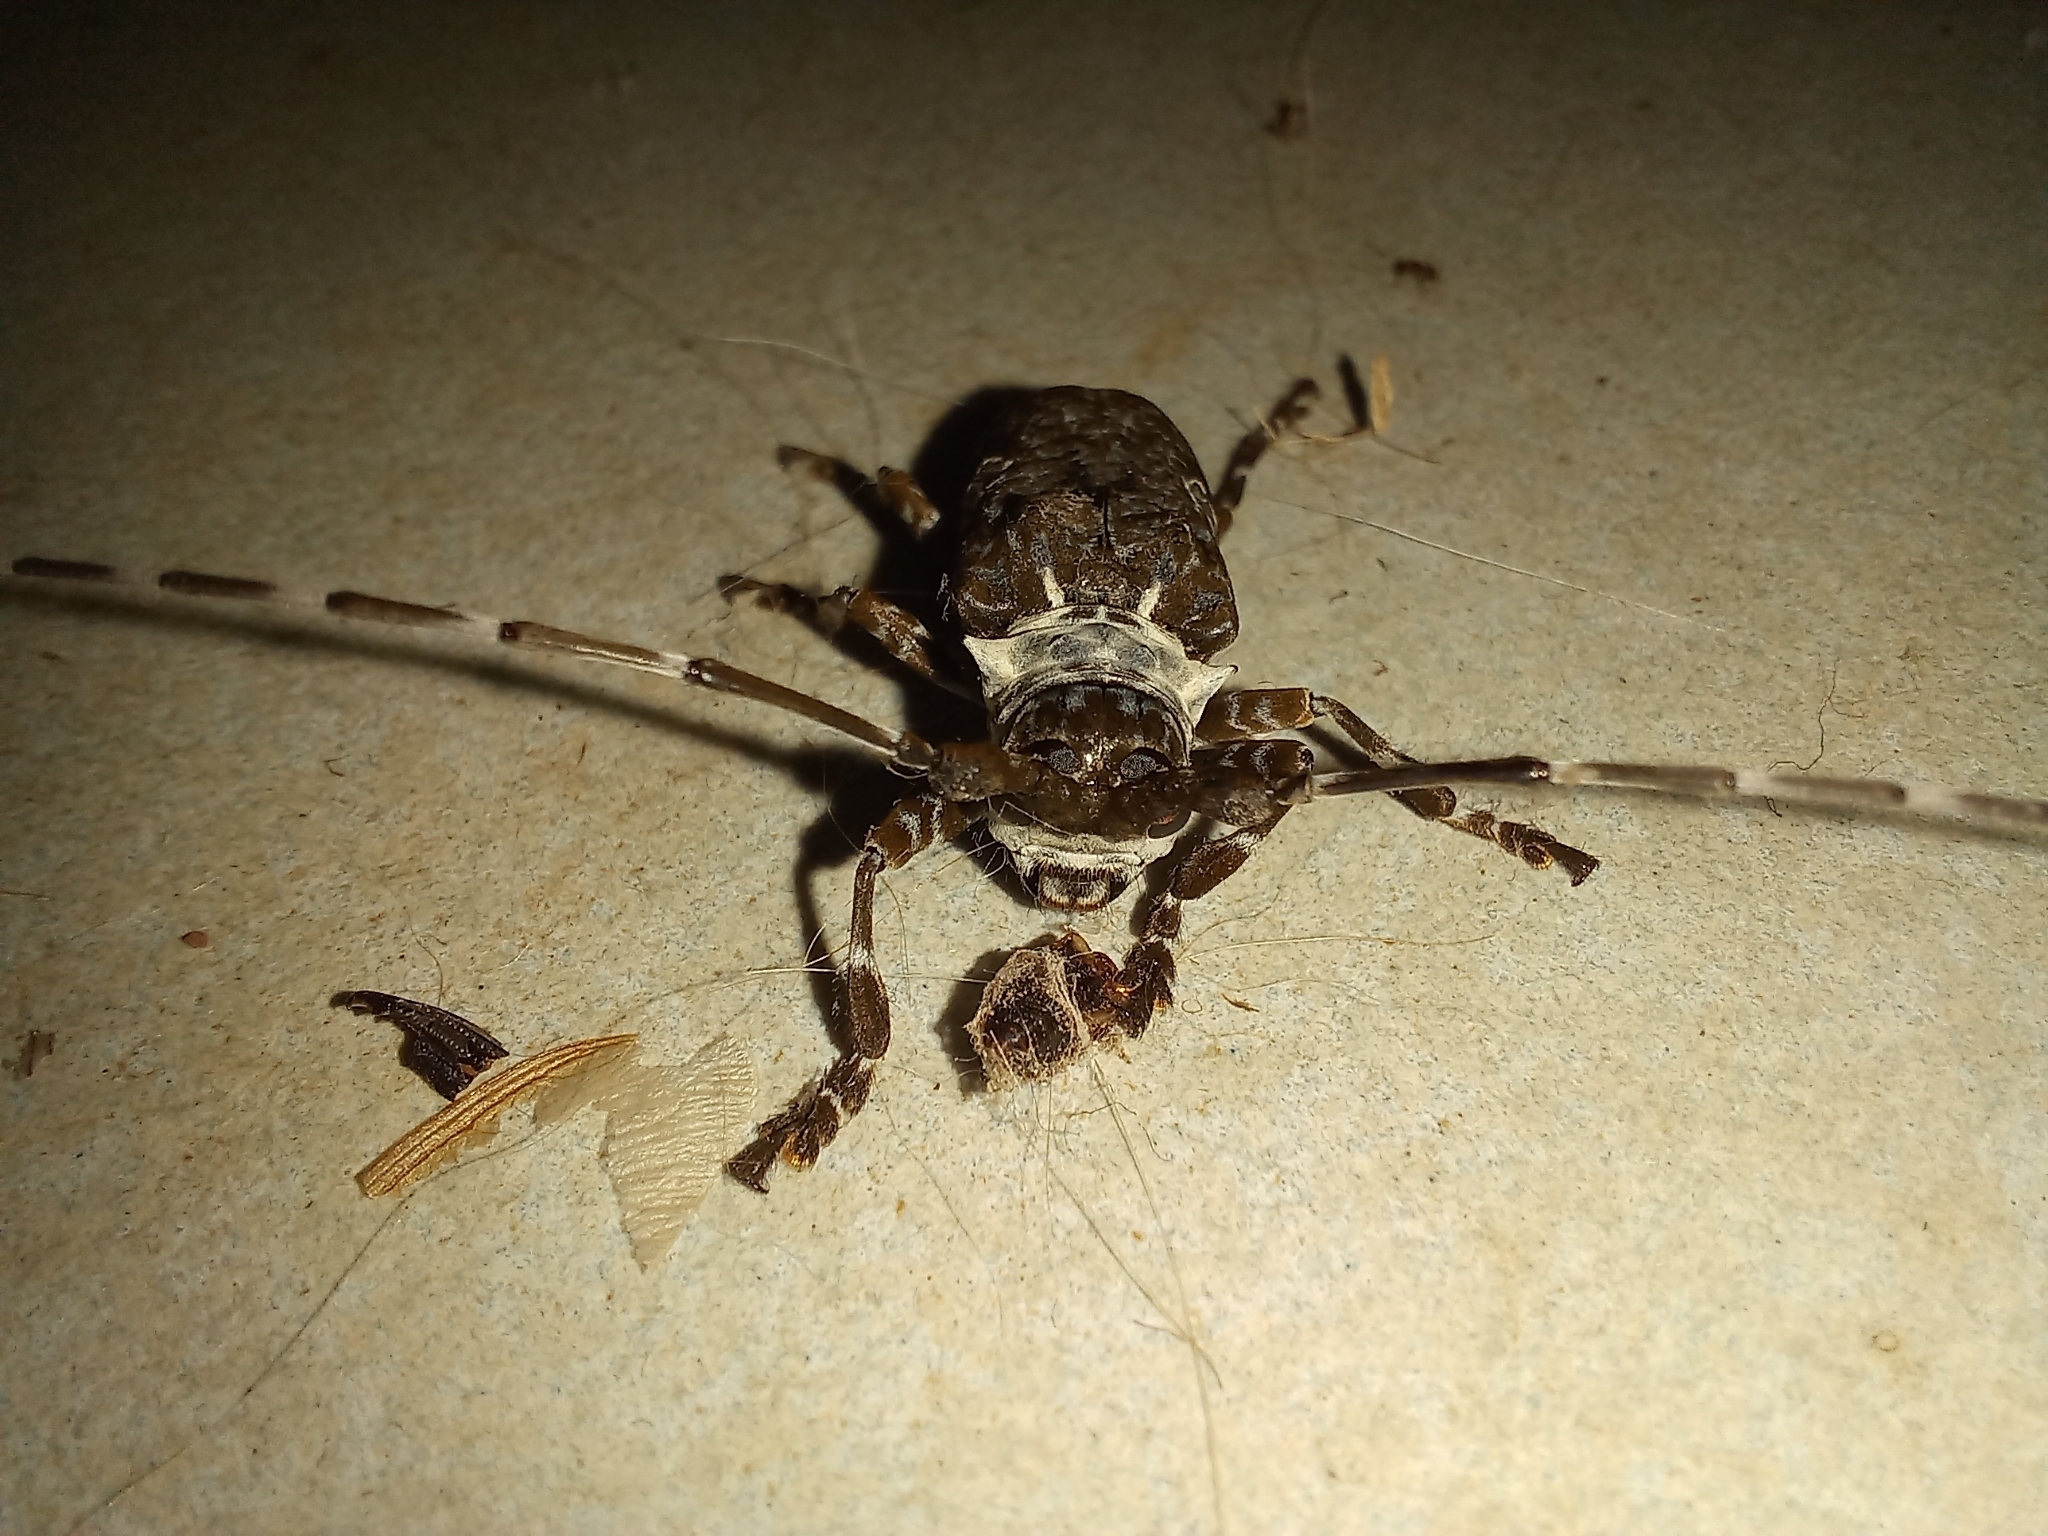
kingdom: Animalia
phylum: Arthropoda
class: Insecta
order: Coleoptera
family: Cerambycidae
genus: Lasiopezus
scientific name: Lasiopezus longimanus
